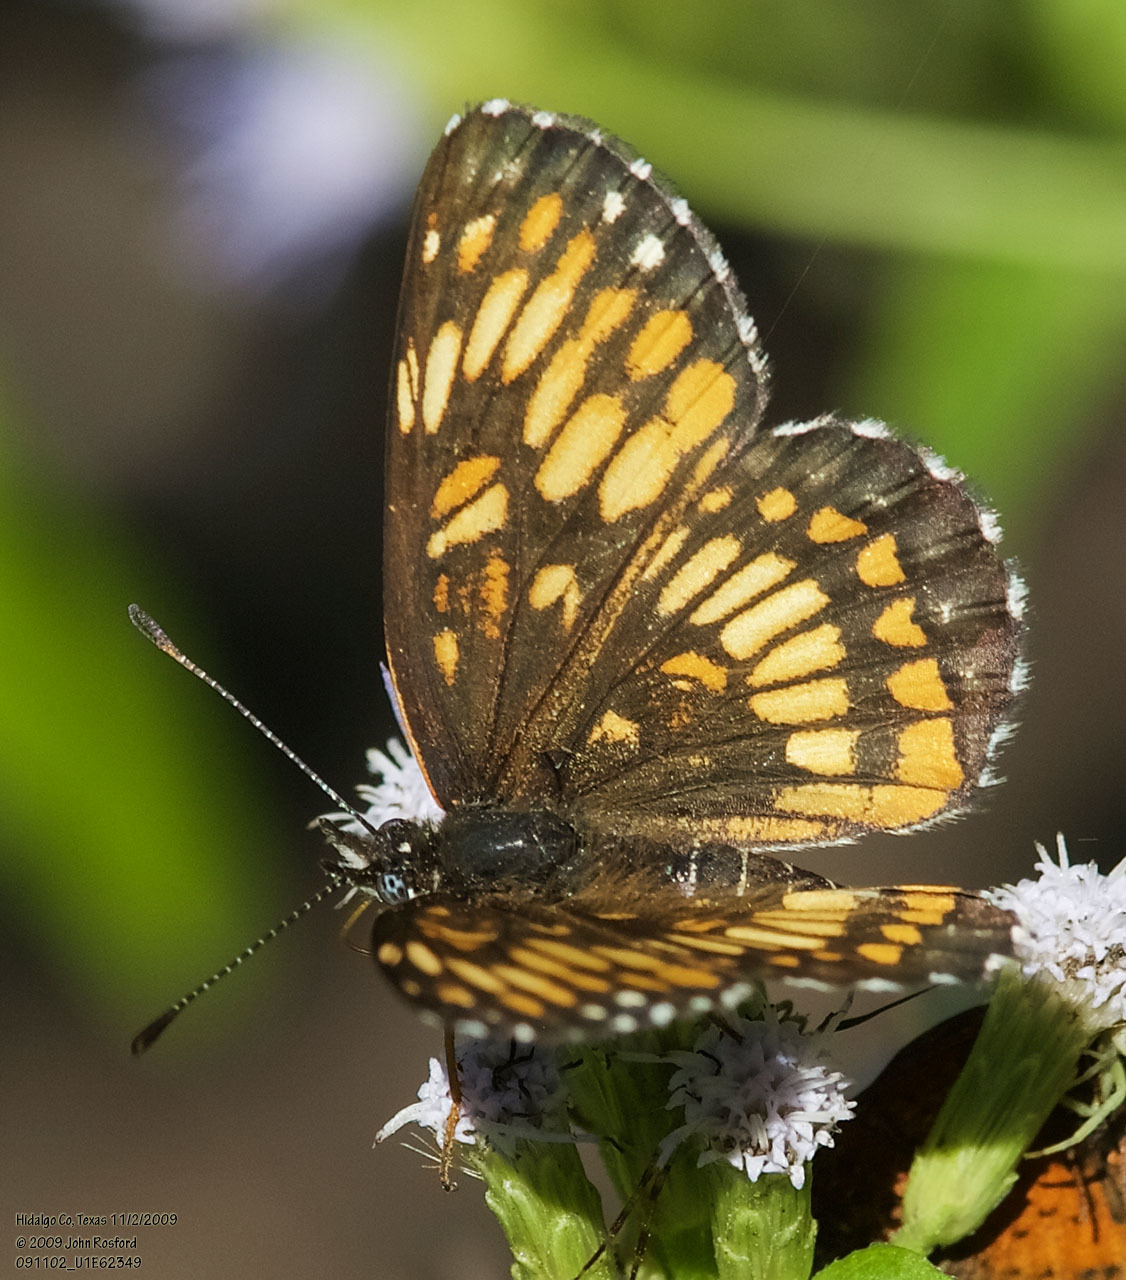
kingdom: Animalia
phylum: Arthropoda
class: Insecta
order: Lepidoptera
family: Nymphalidae
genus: Thessalia
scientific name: Thessalia theona
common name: Nymphalid moth
